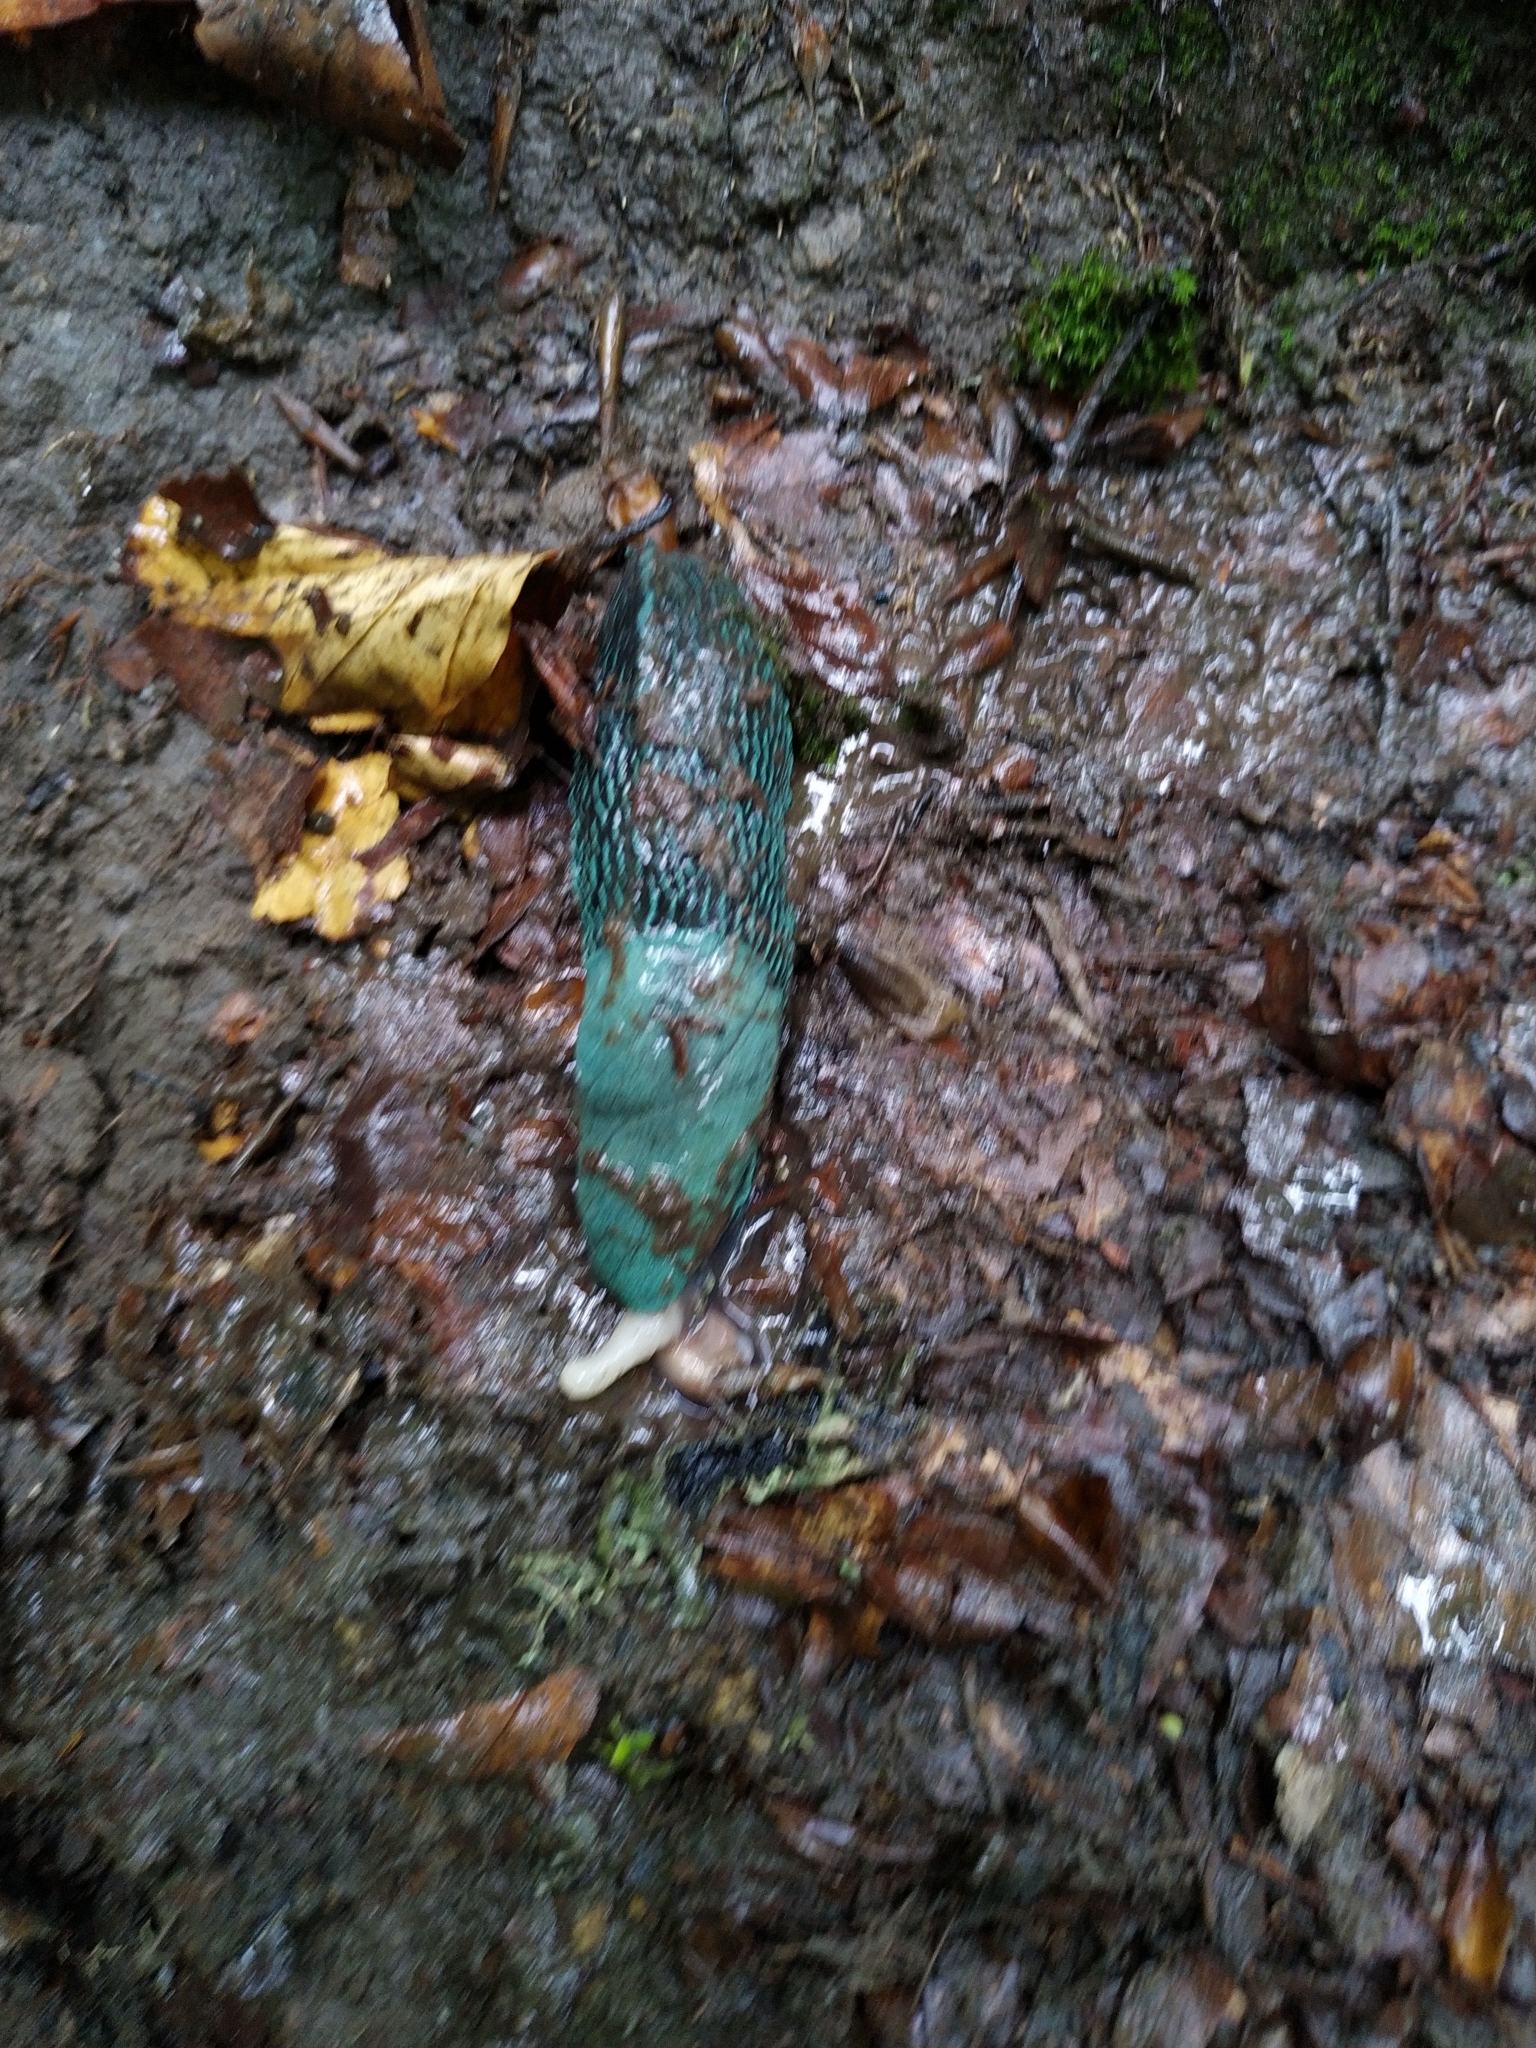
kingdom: Animalia
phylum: Mollusca
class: Gastropoda
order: Stylommatophora
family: Limacidae
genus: Bielzia
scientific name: Bielzia coerulans
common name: Carpathian blue slug
